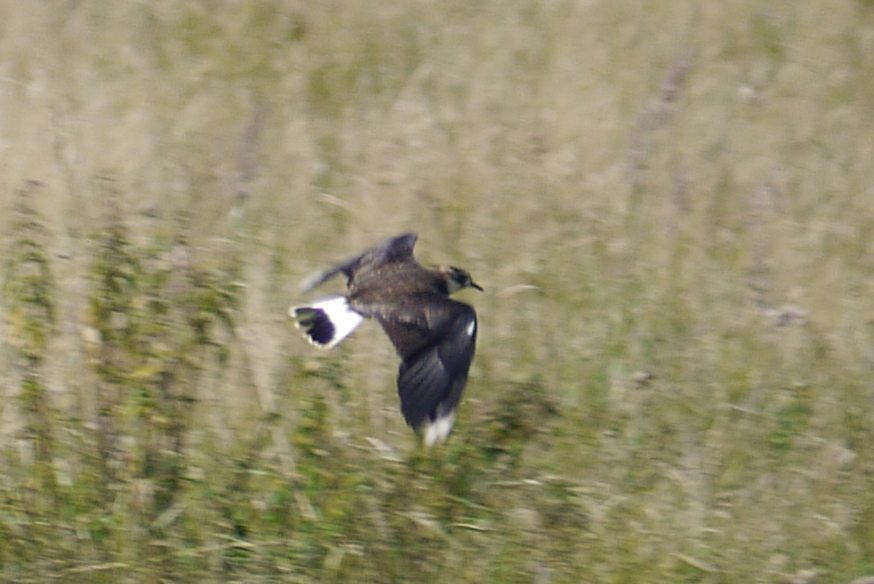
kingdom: Animalia
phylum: Chordata
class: Aves
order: Charadriiformes
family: Charadriidae
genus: Vanellus
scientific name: Vanellus vanellus
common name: Northern lapwing
